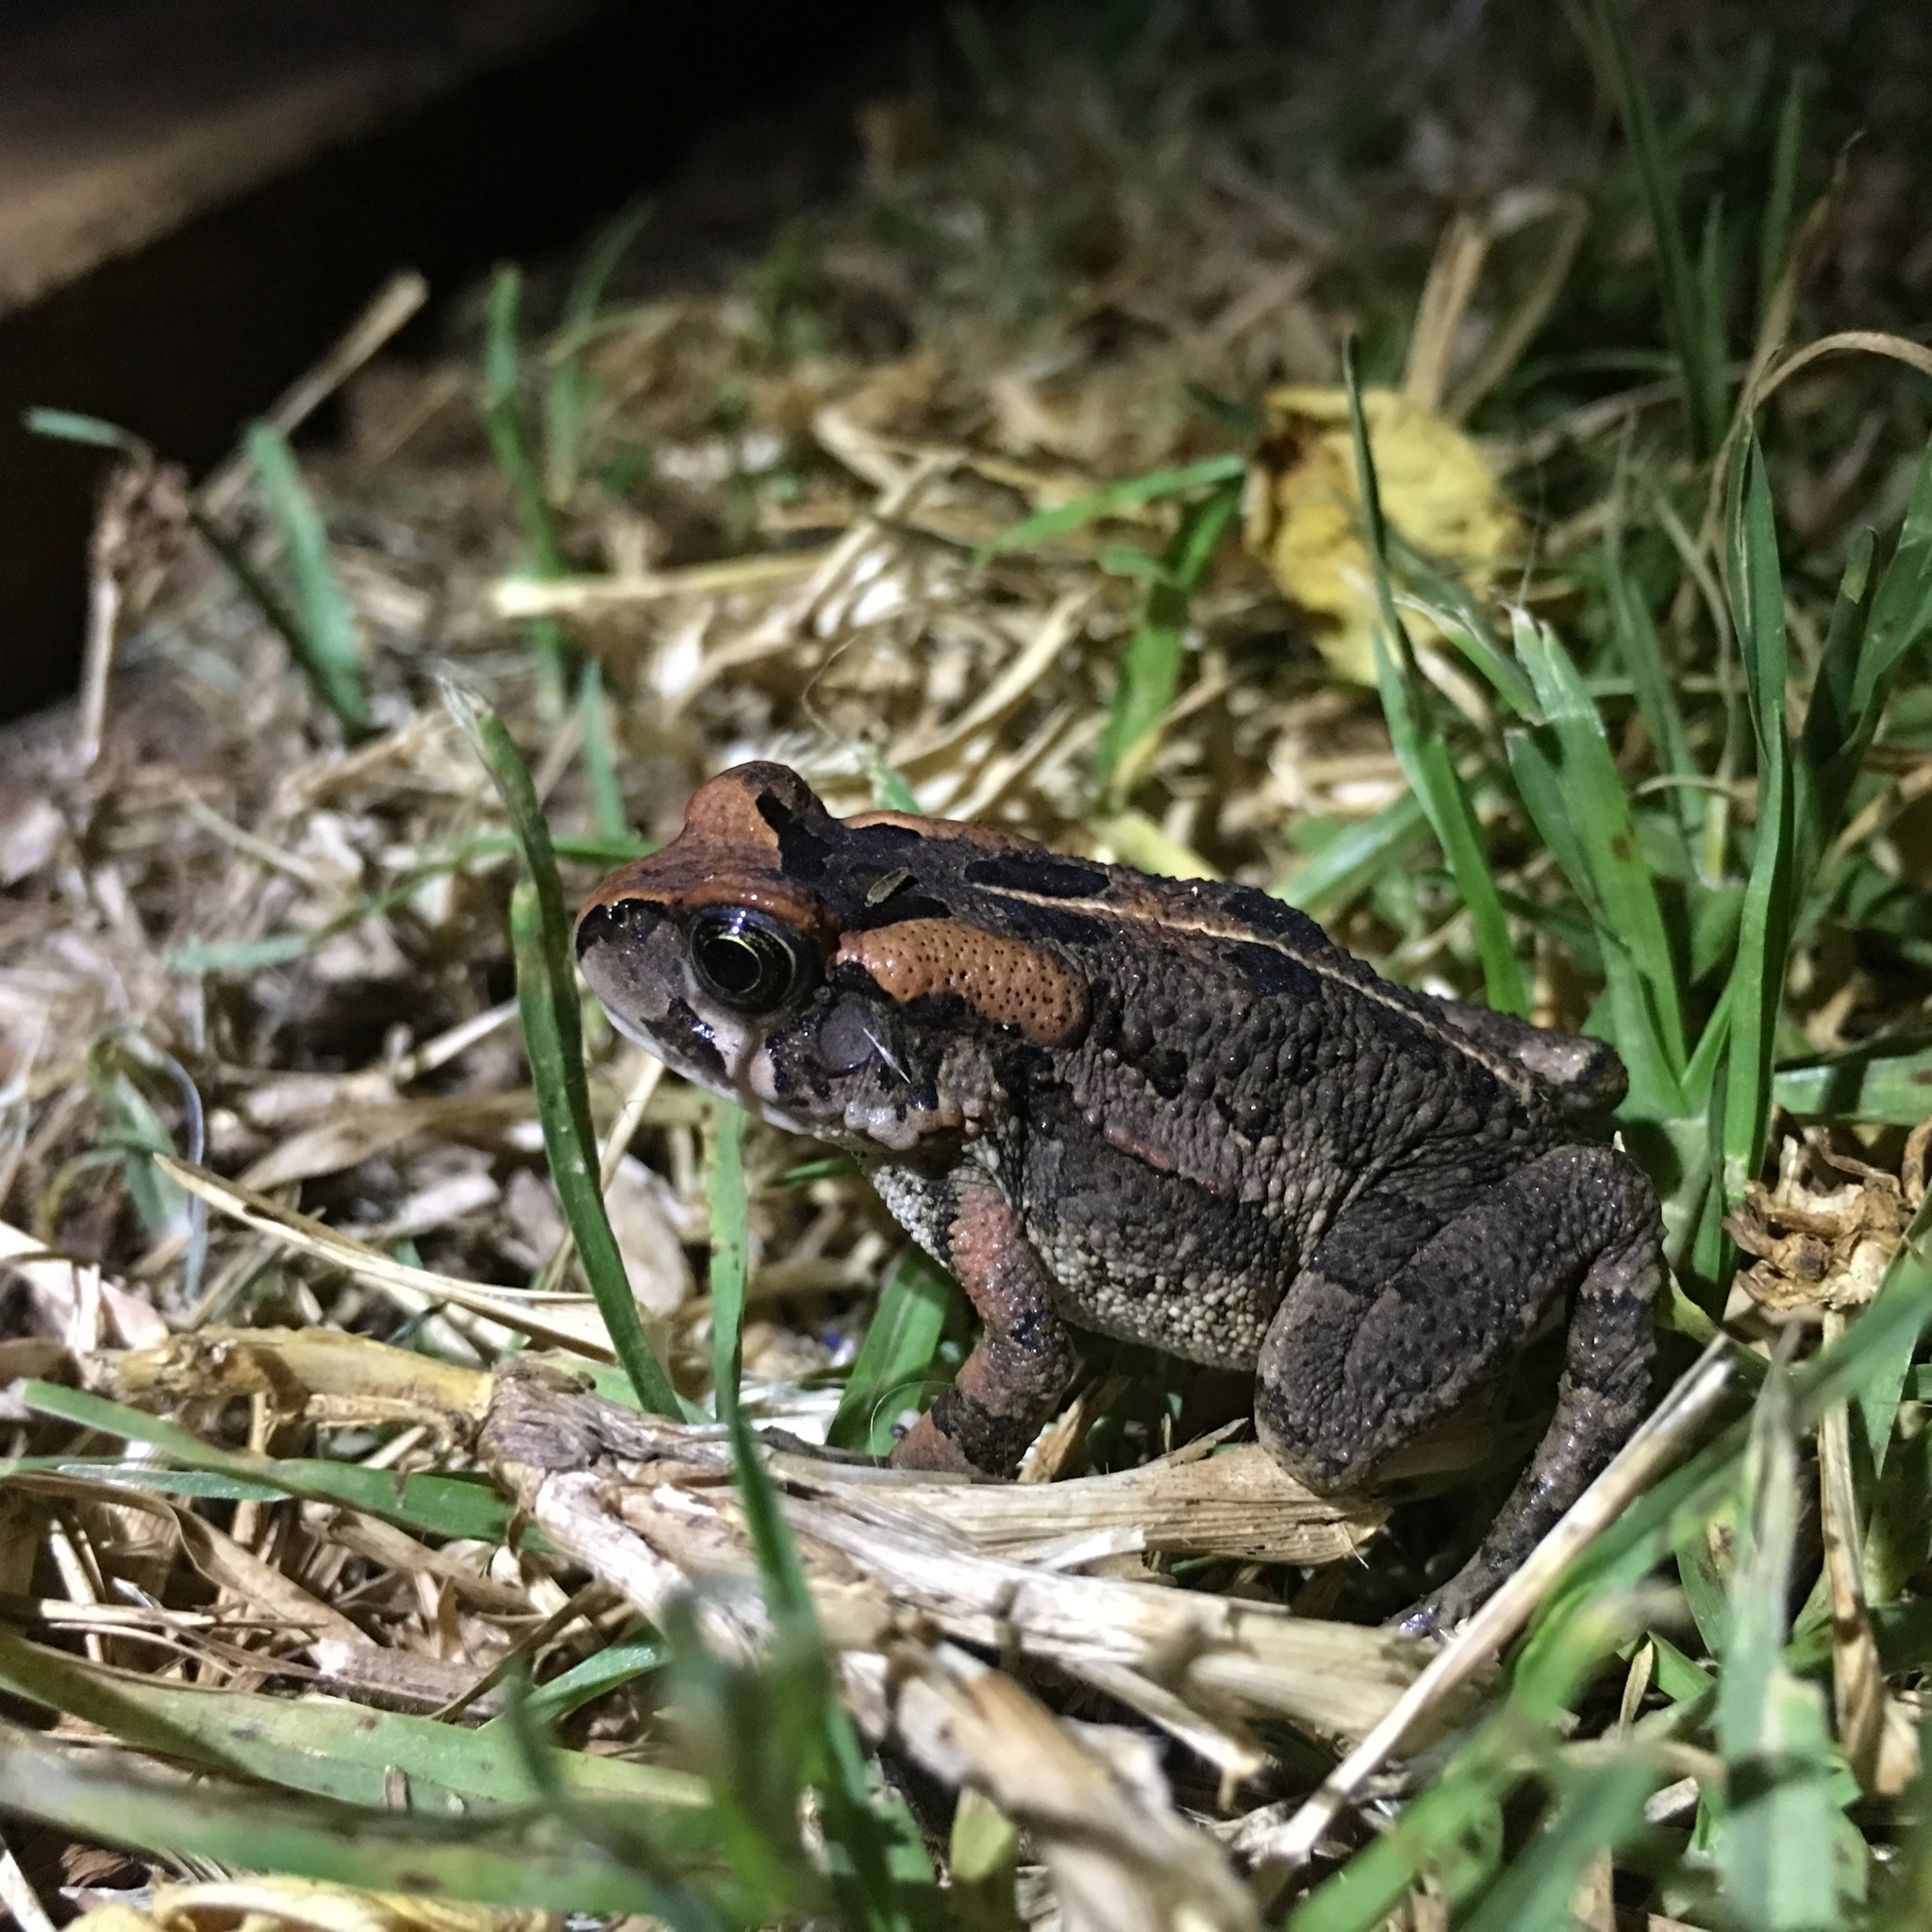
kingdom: Animalia
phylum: Chordata
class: Amphibia
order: Anura
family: Bufonidae
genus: Sclerophrys
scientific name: Sclerophrys capensis
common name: Ranger’s toad
